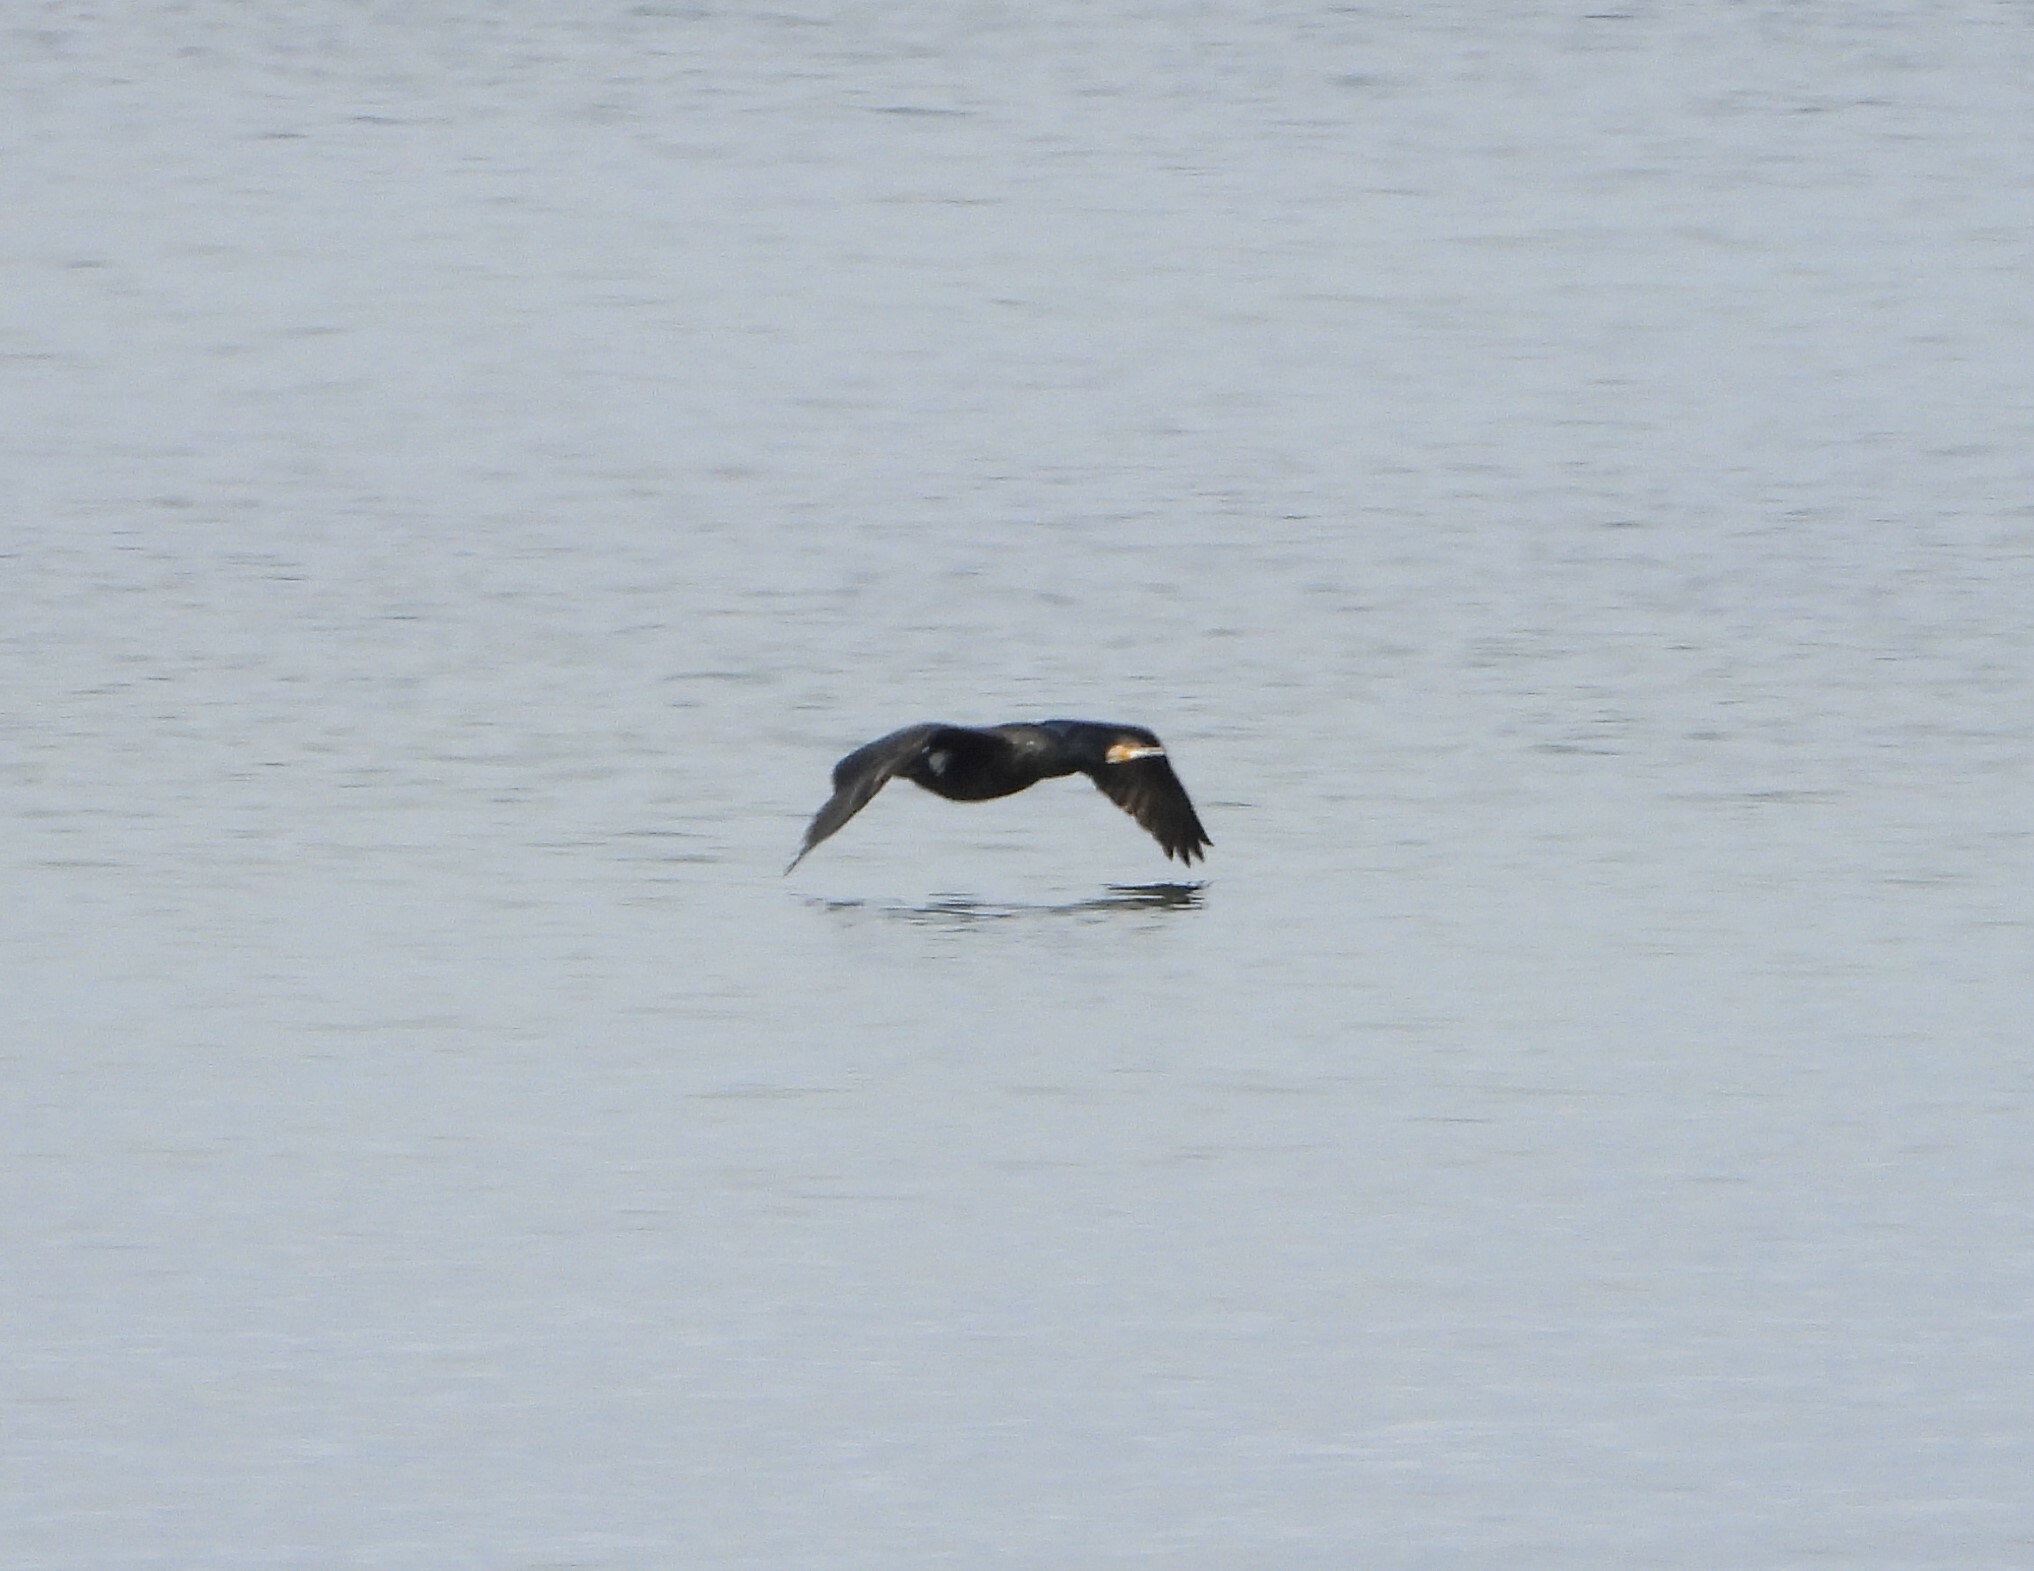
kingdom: Animalia
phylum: Chordata
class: Aves
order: Suliformes
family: Phalacrocoracidae
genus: Phalacrocorax
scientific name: Phalacrocorax carbo
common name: Great cormorant
